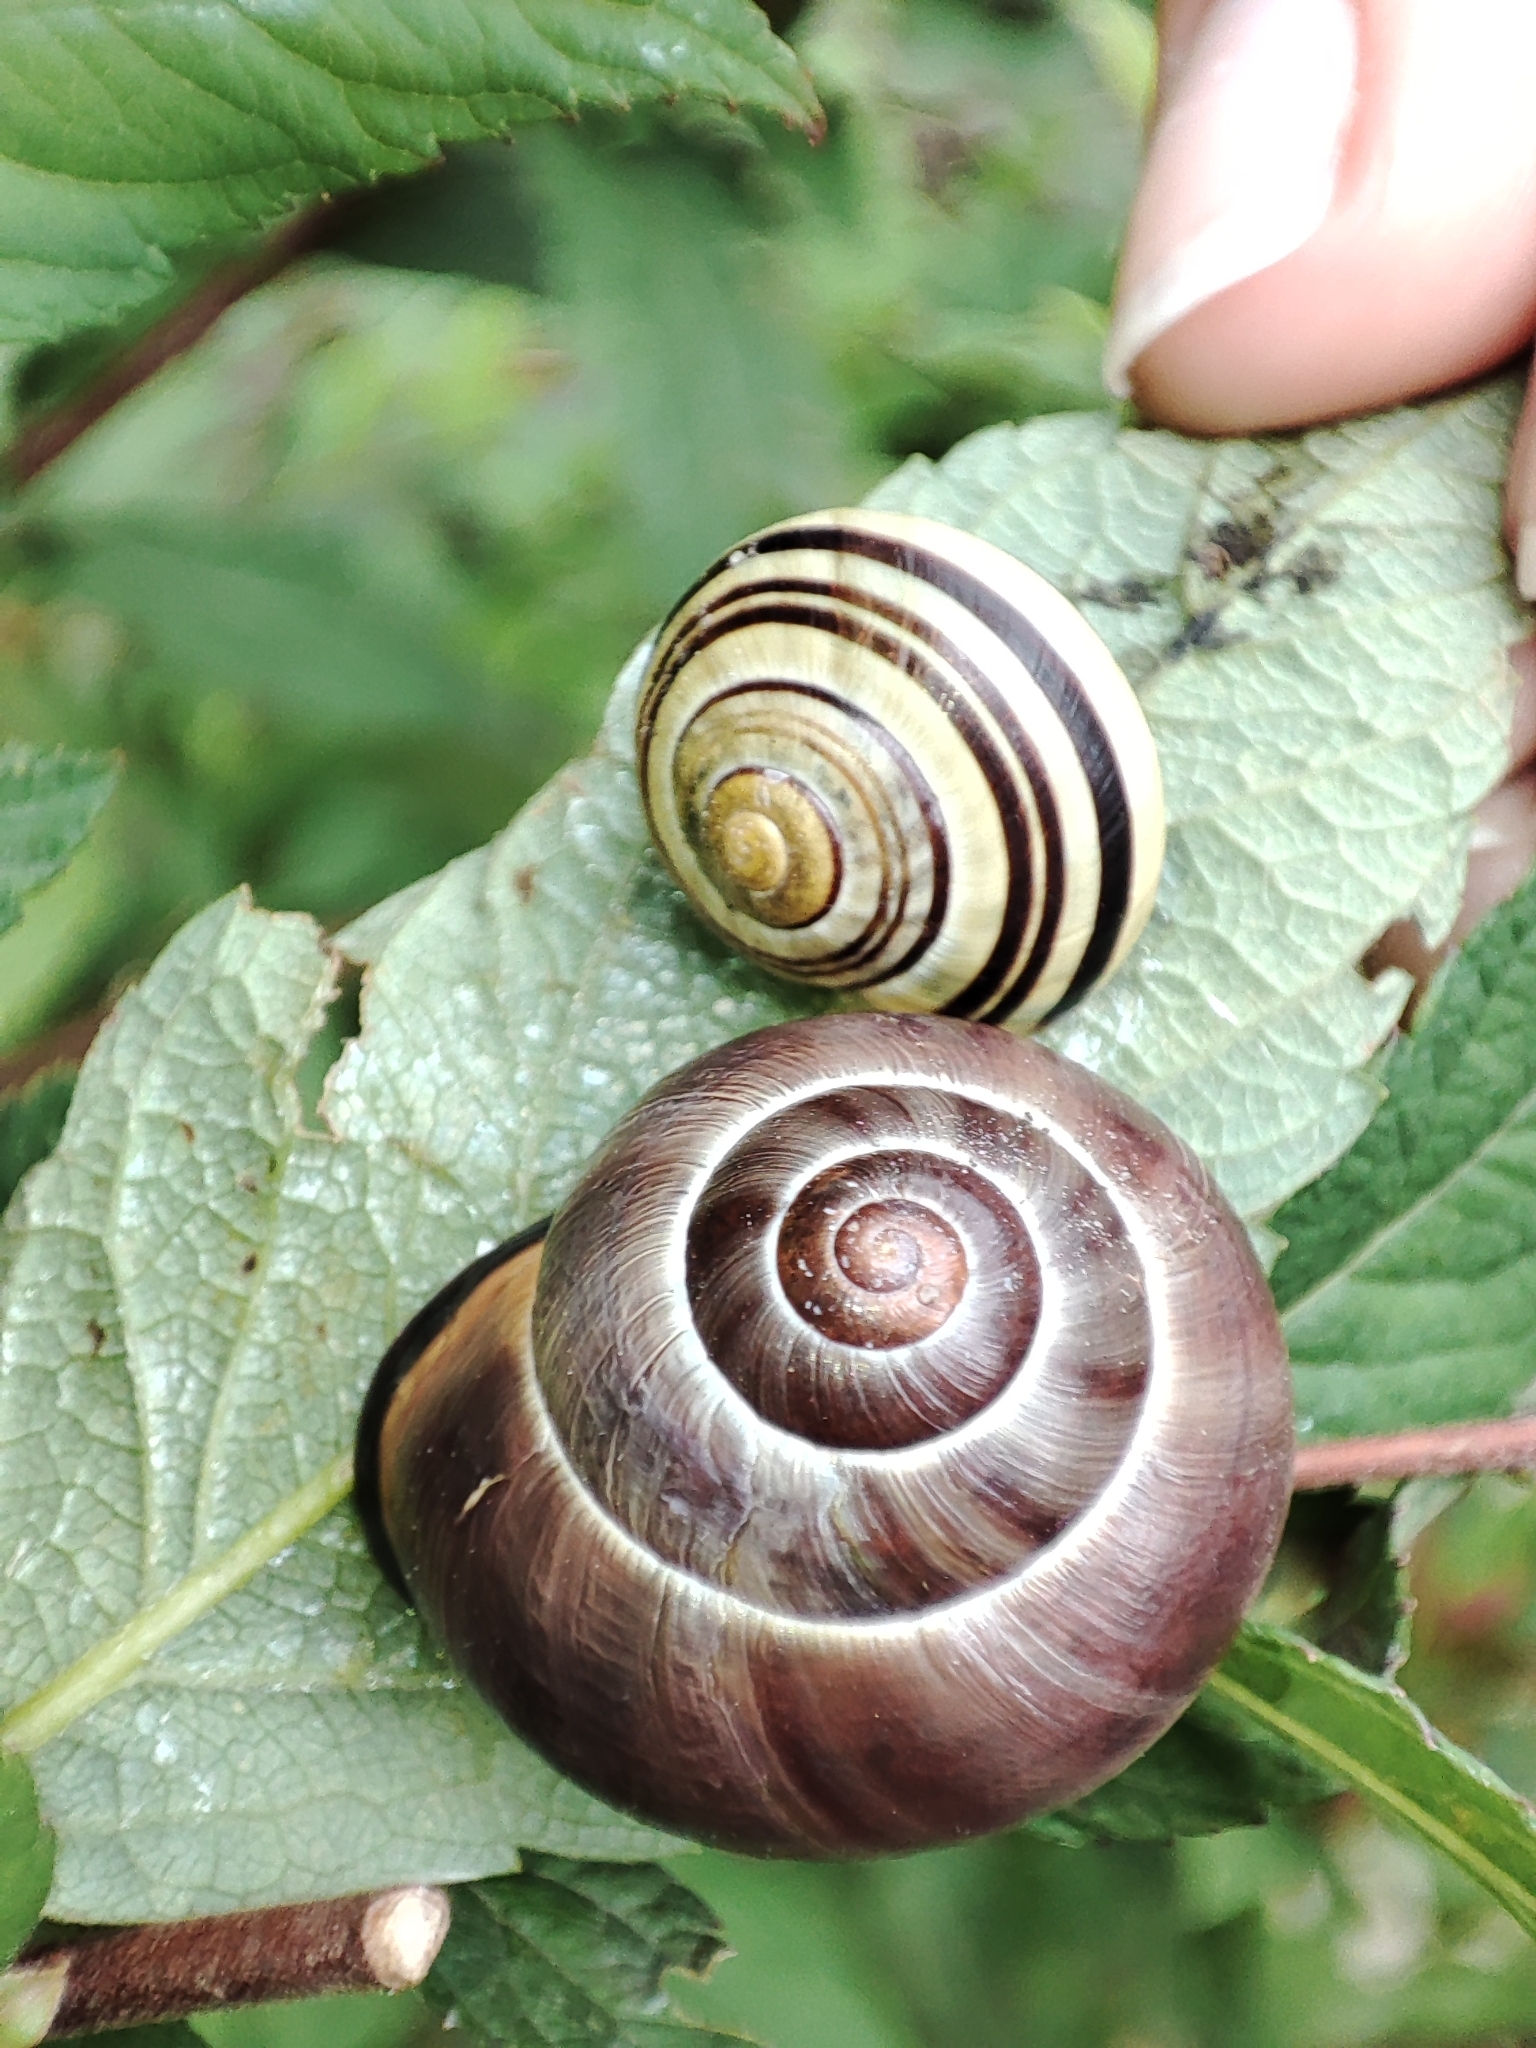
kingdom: Animalia
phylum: Mollusca
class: Gastropoda
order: Stylommatophora
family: Helicidae
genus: Cepaea
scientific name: Cepaea nemoralis
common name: Grovesnail
